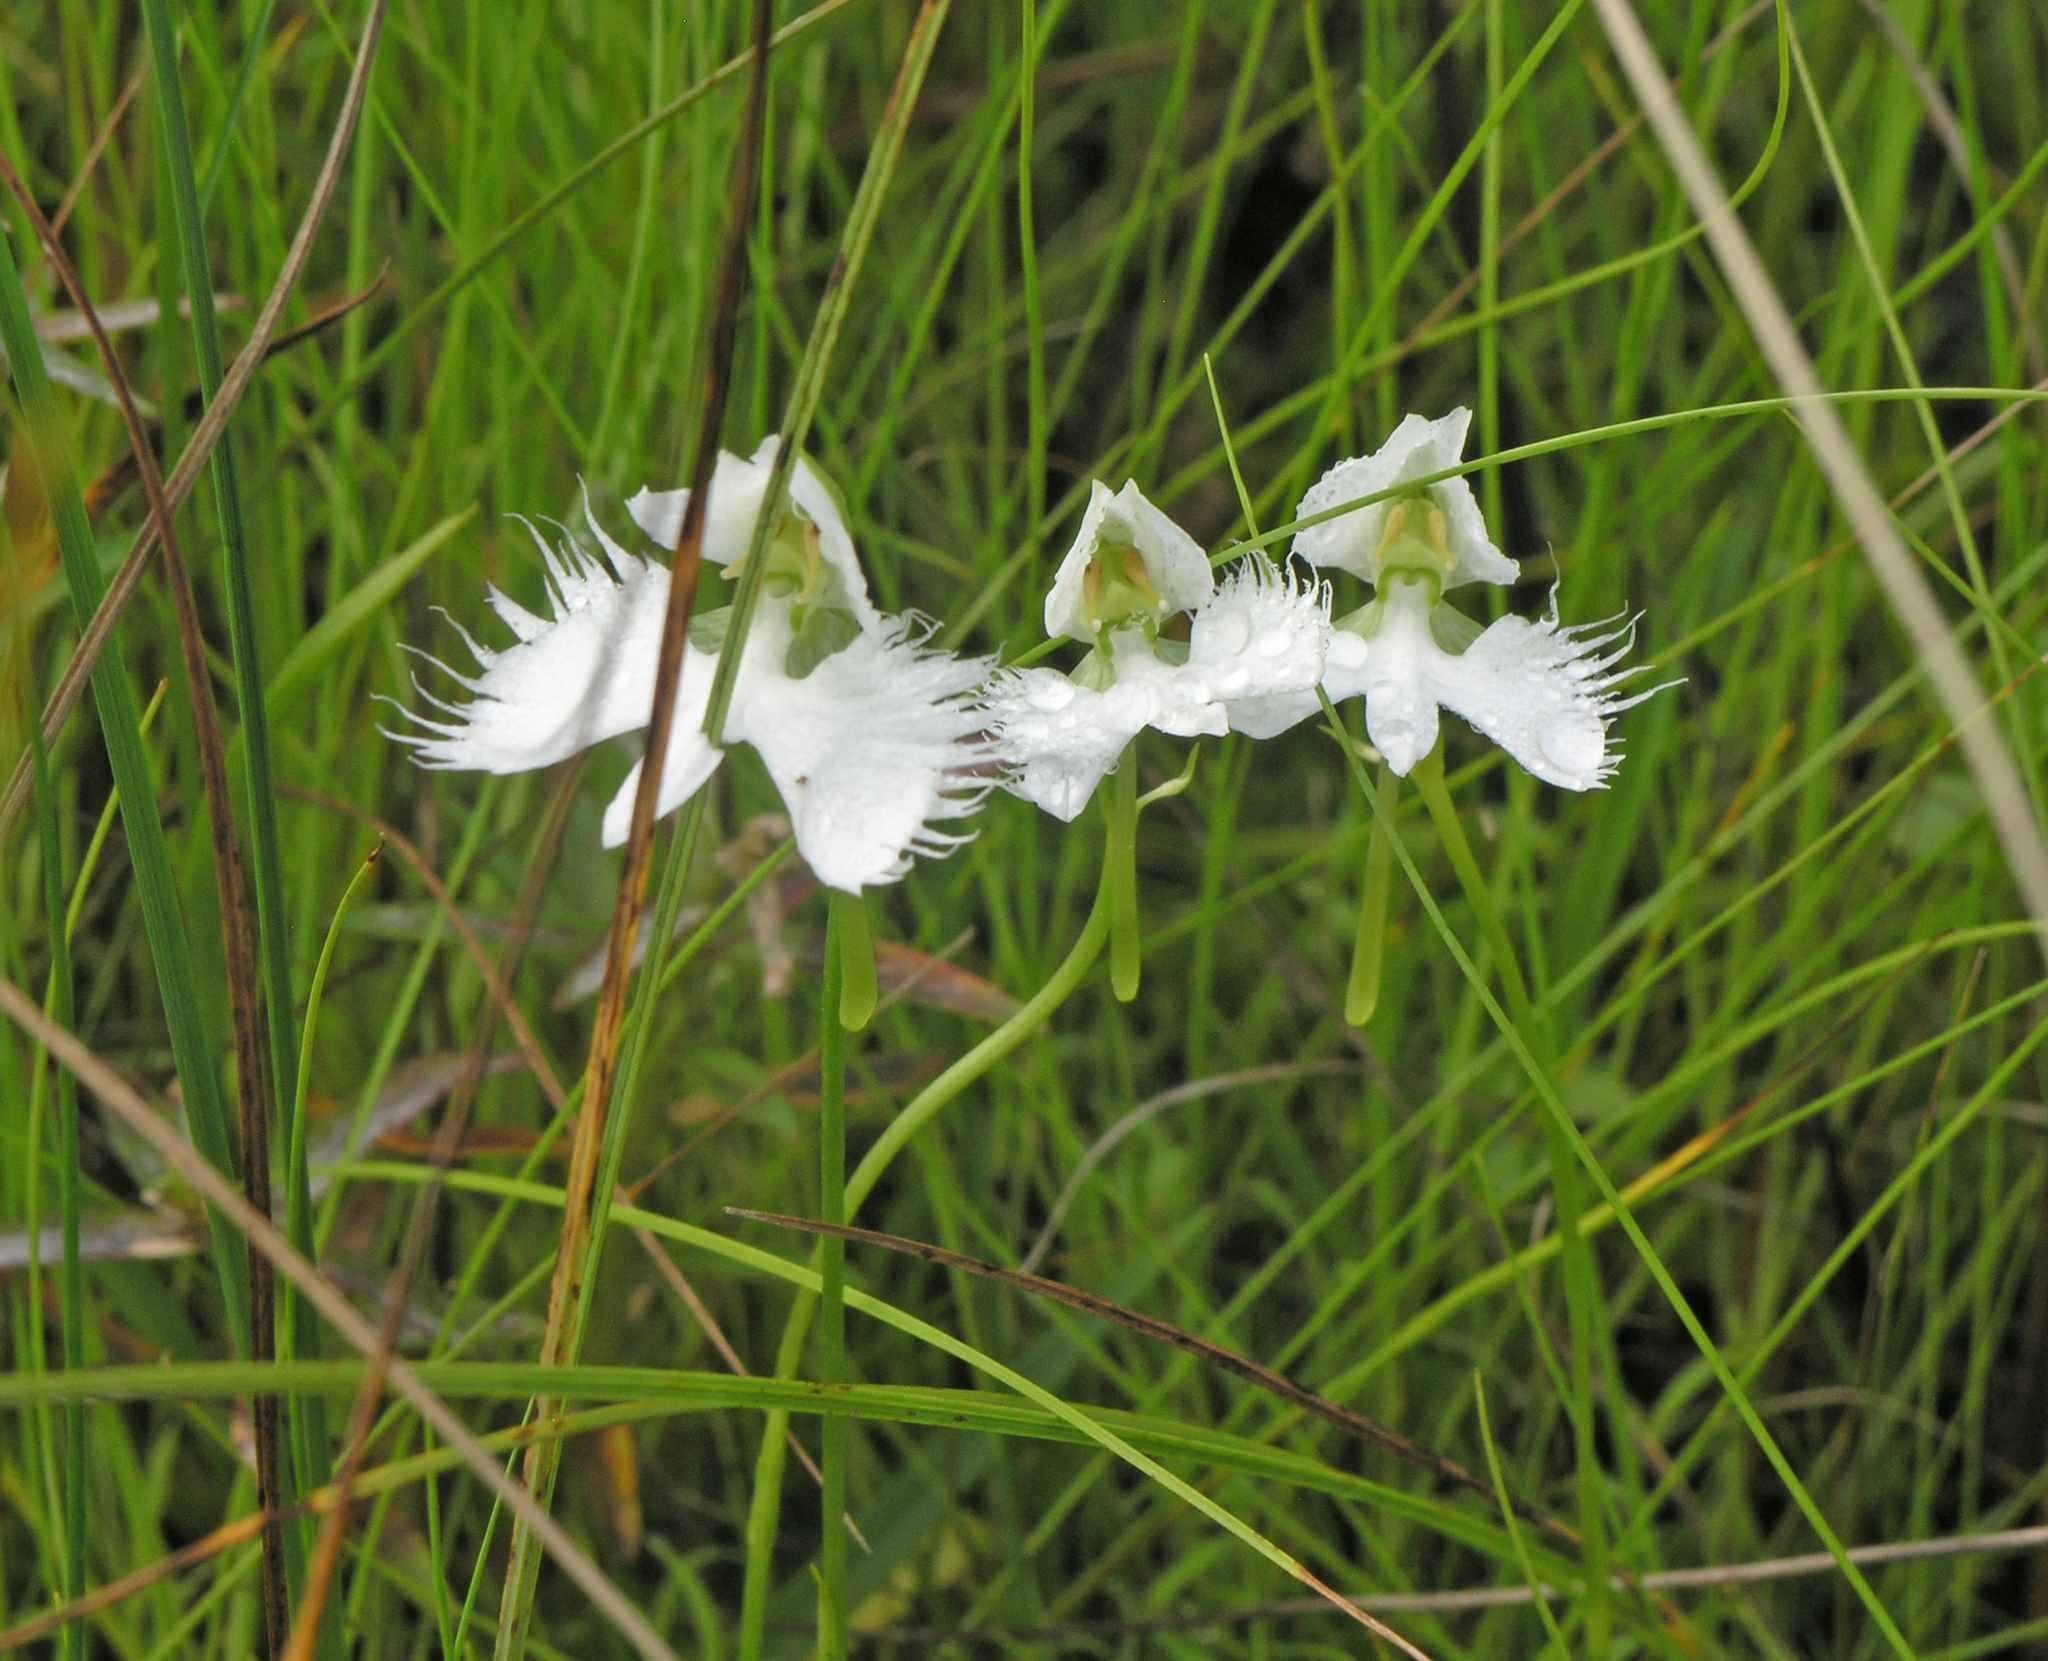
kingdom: Plantae
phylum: Tracheophyta
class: Liliopsida
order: Asparagales
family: Orchidaceae
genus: Pecteilis
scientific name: Pecteilis radiata
